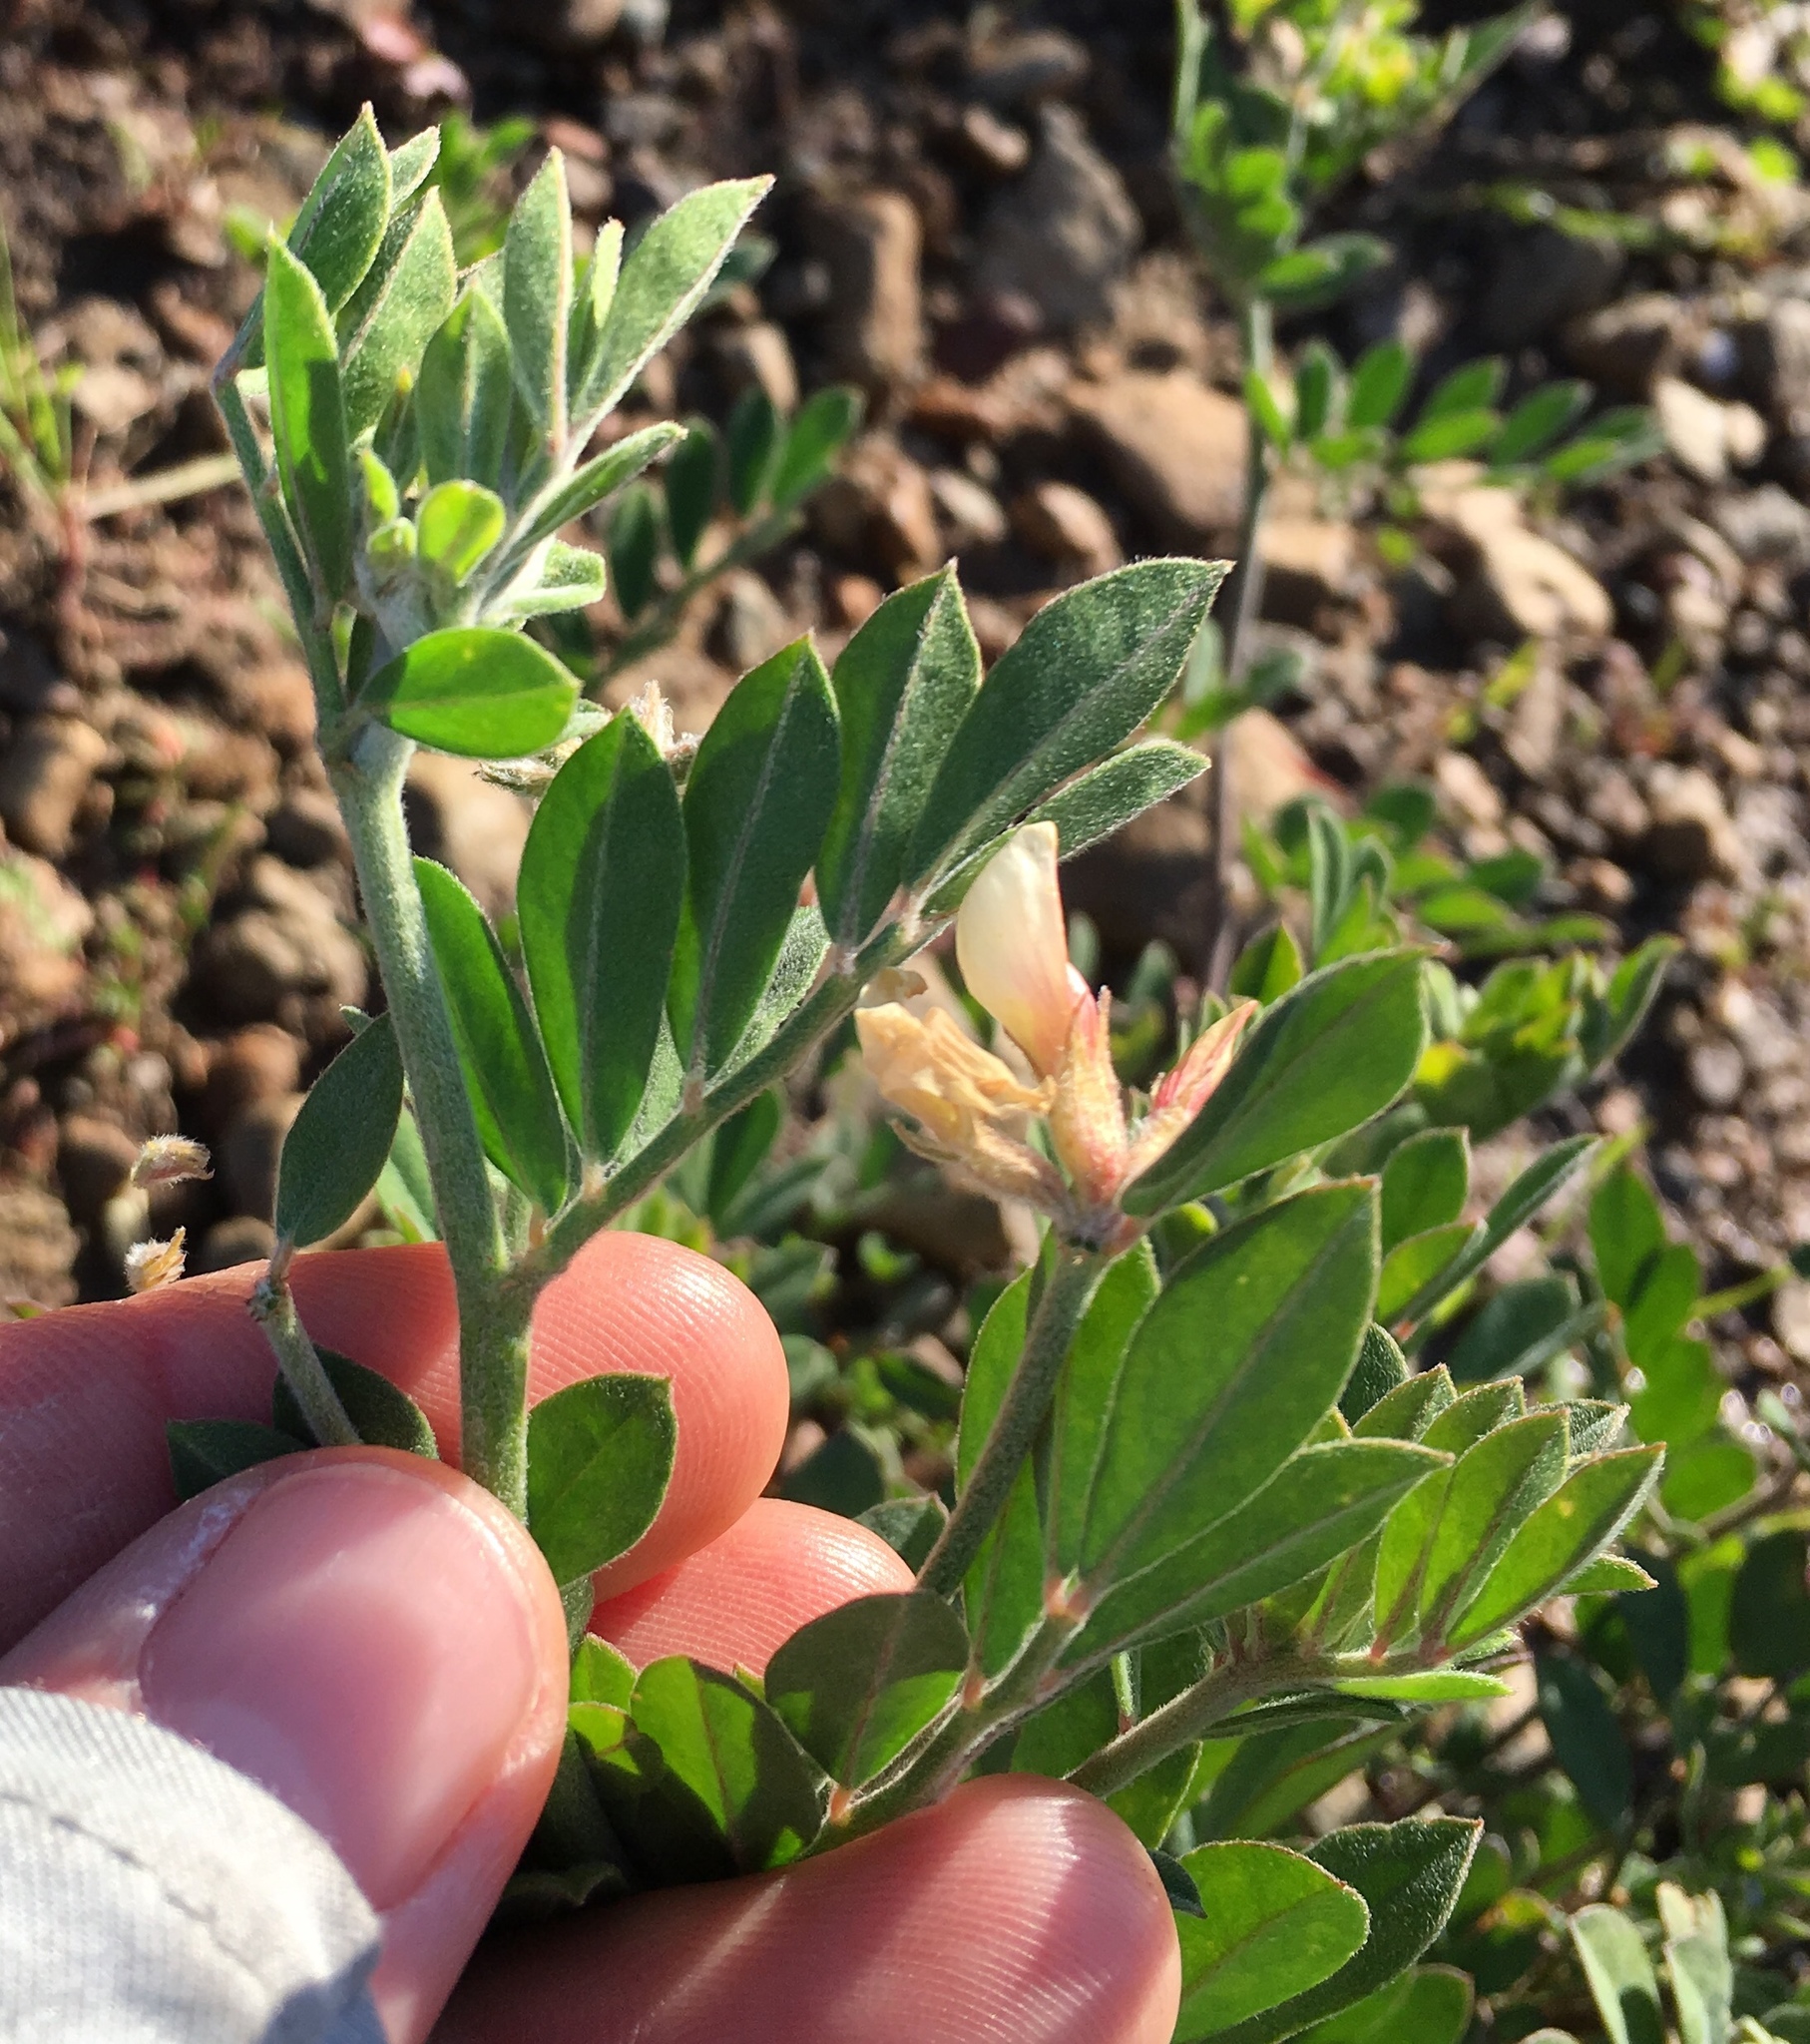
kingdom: Plantae
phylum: Tracheophyta
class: Magnoliopsida
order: Fabales
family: Fabaceae
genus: Acmispon
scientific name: Acmispon grandiflorus
